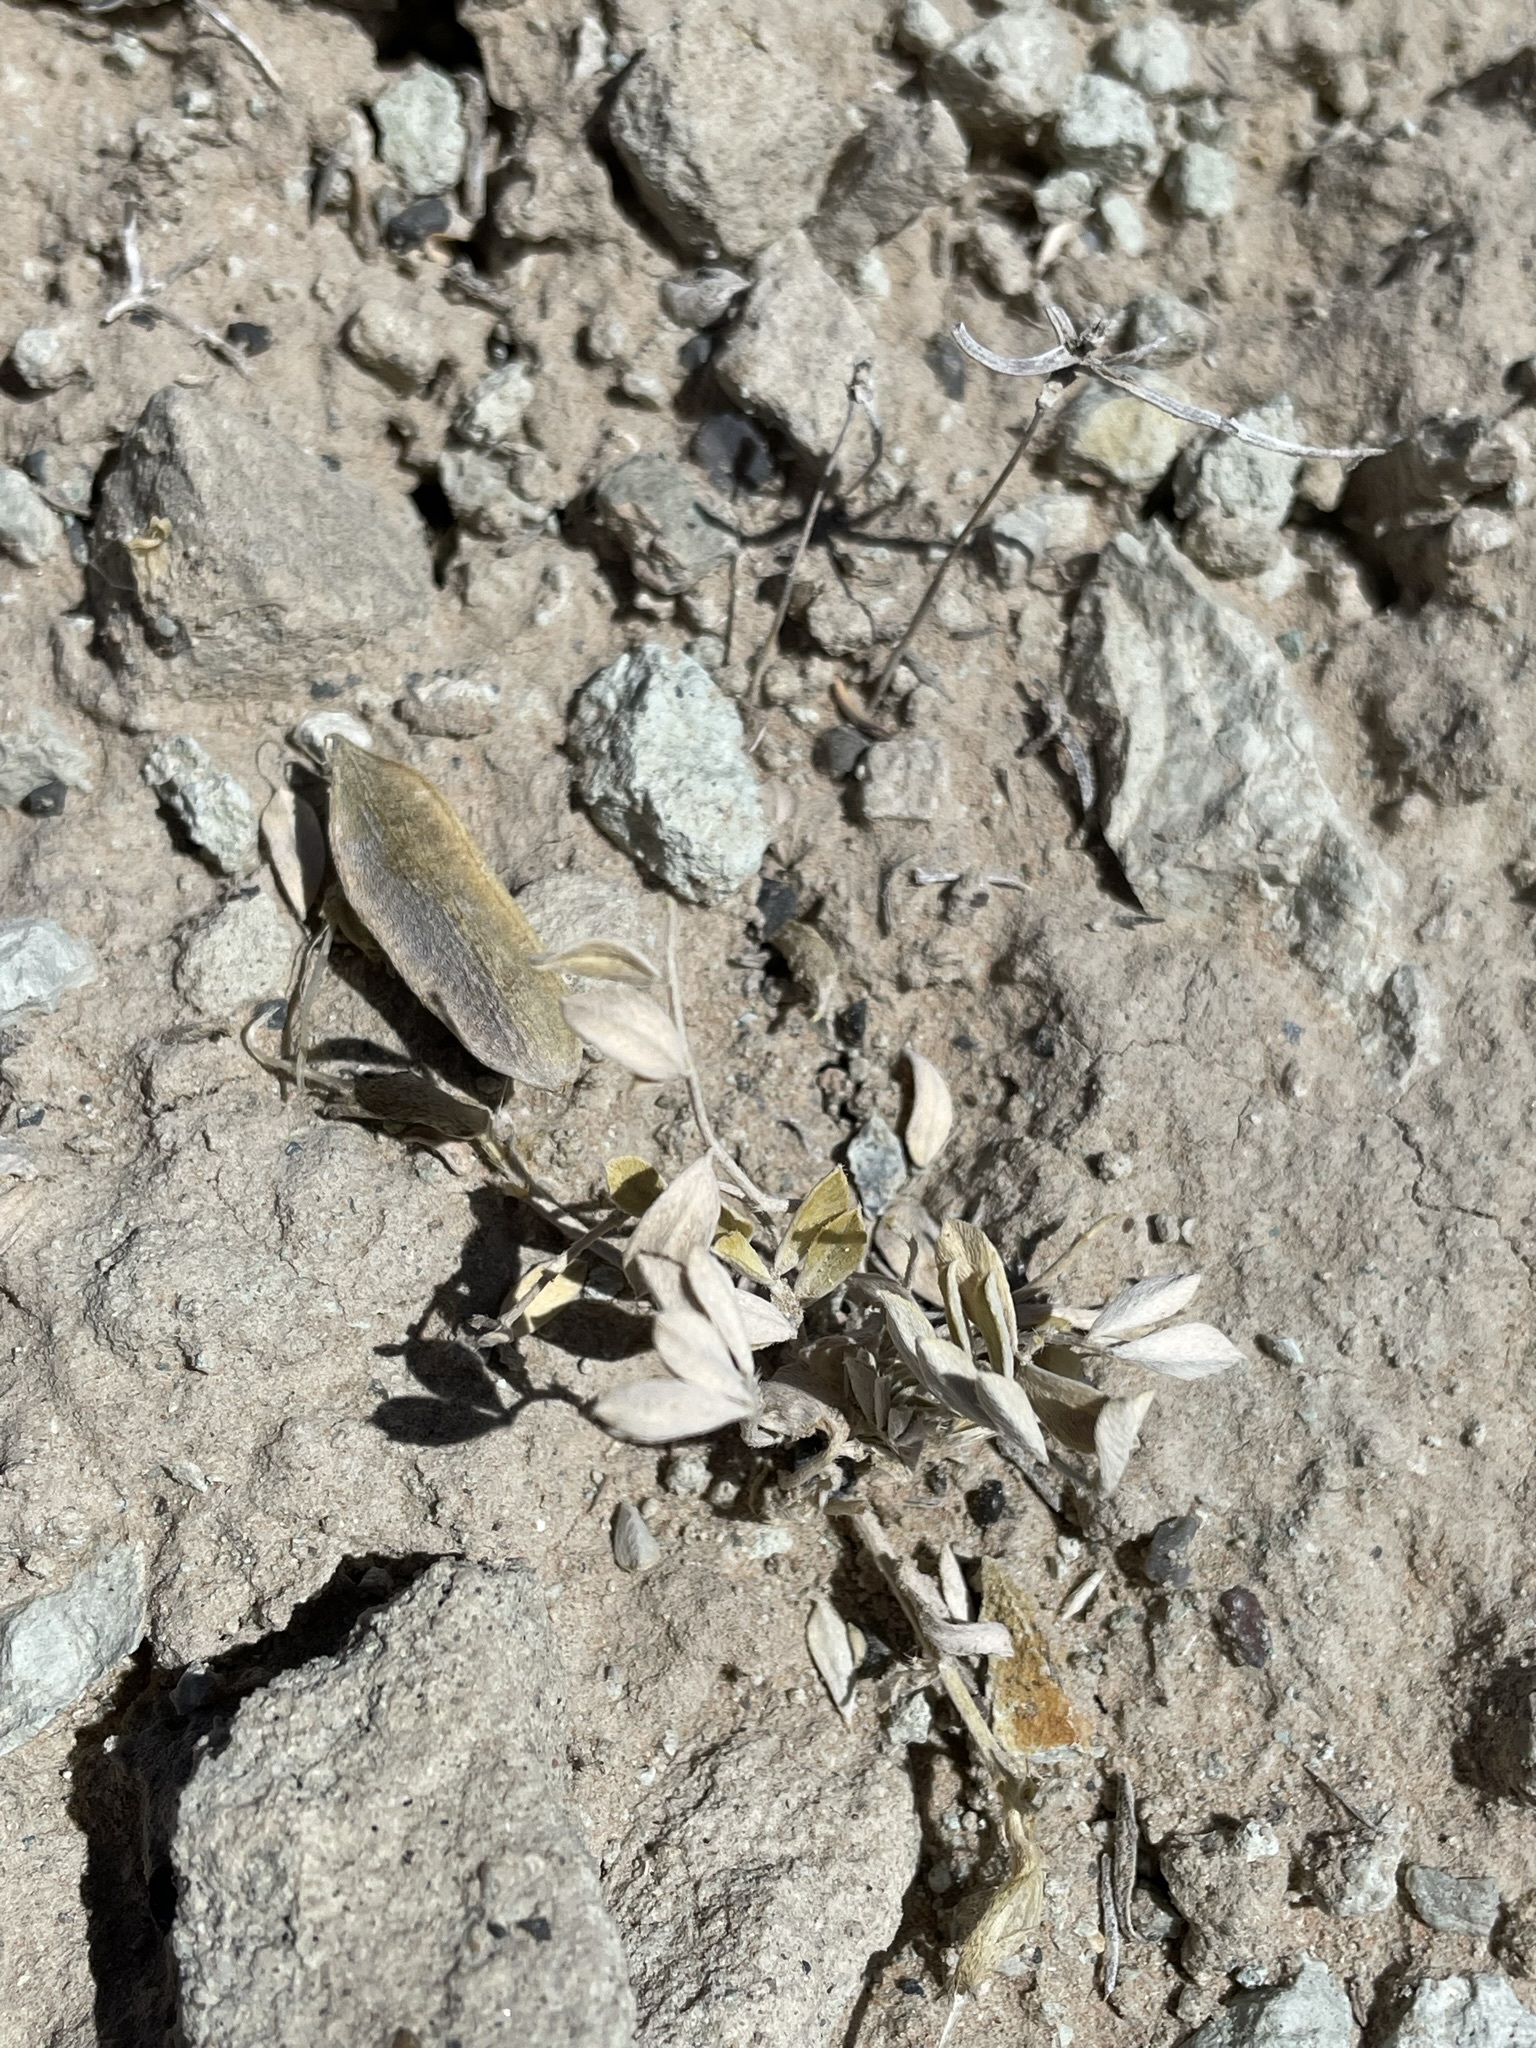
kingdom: Plantae
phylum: Tracheophyta
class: Magnoliopsida
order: Fabales
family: Fabaceae
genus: Astragalus
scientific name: Astragalus cymboides
